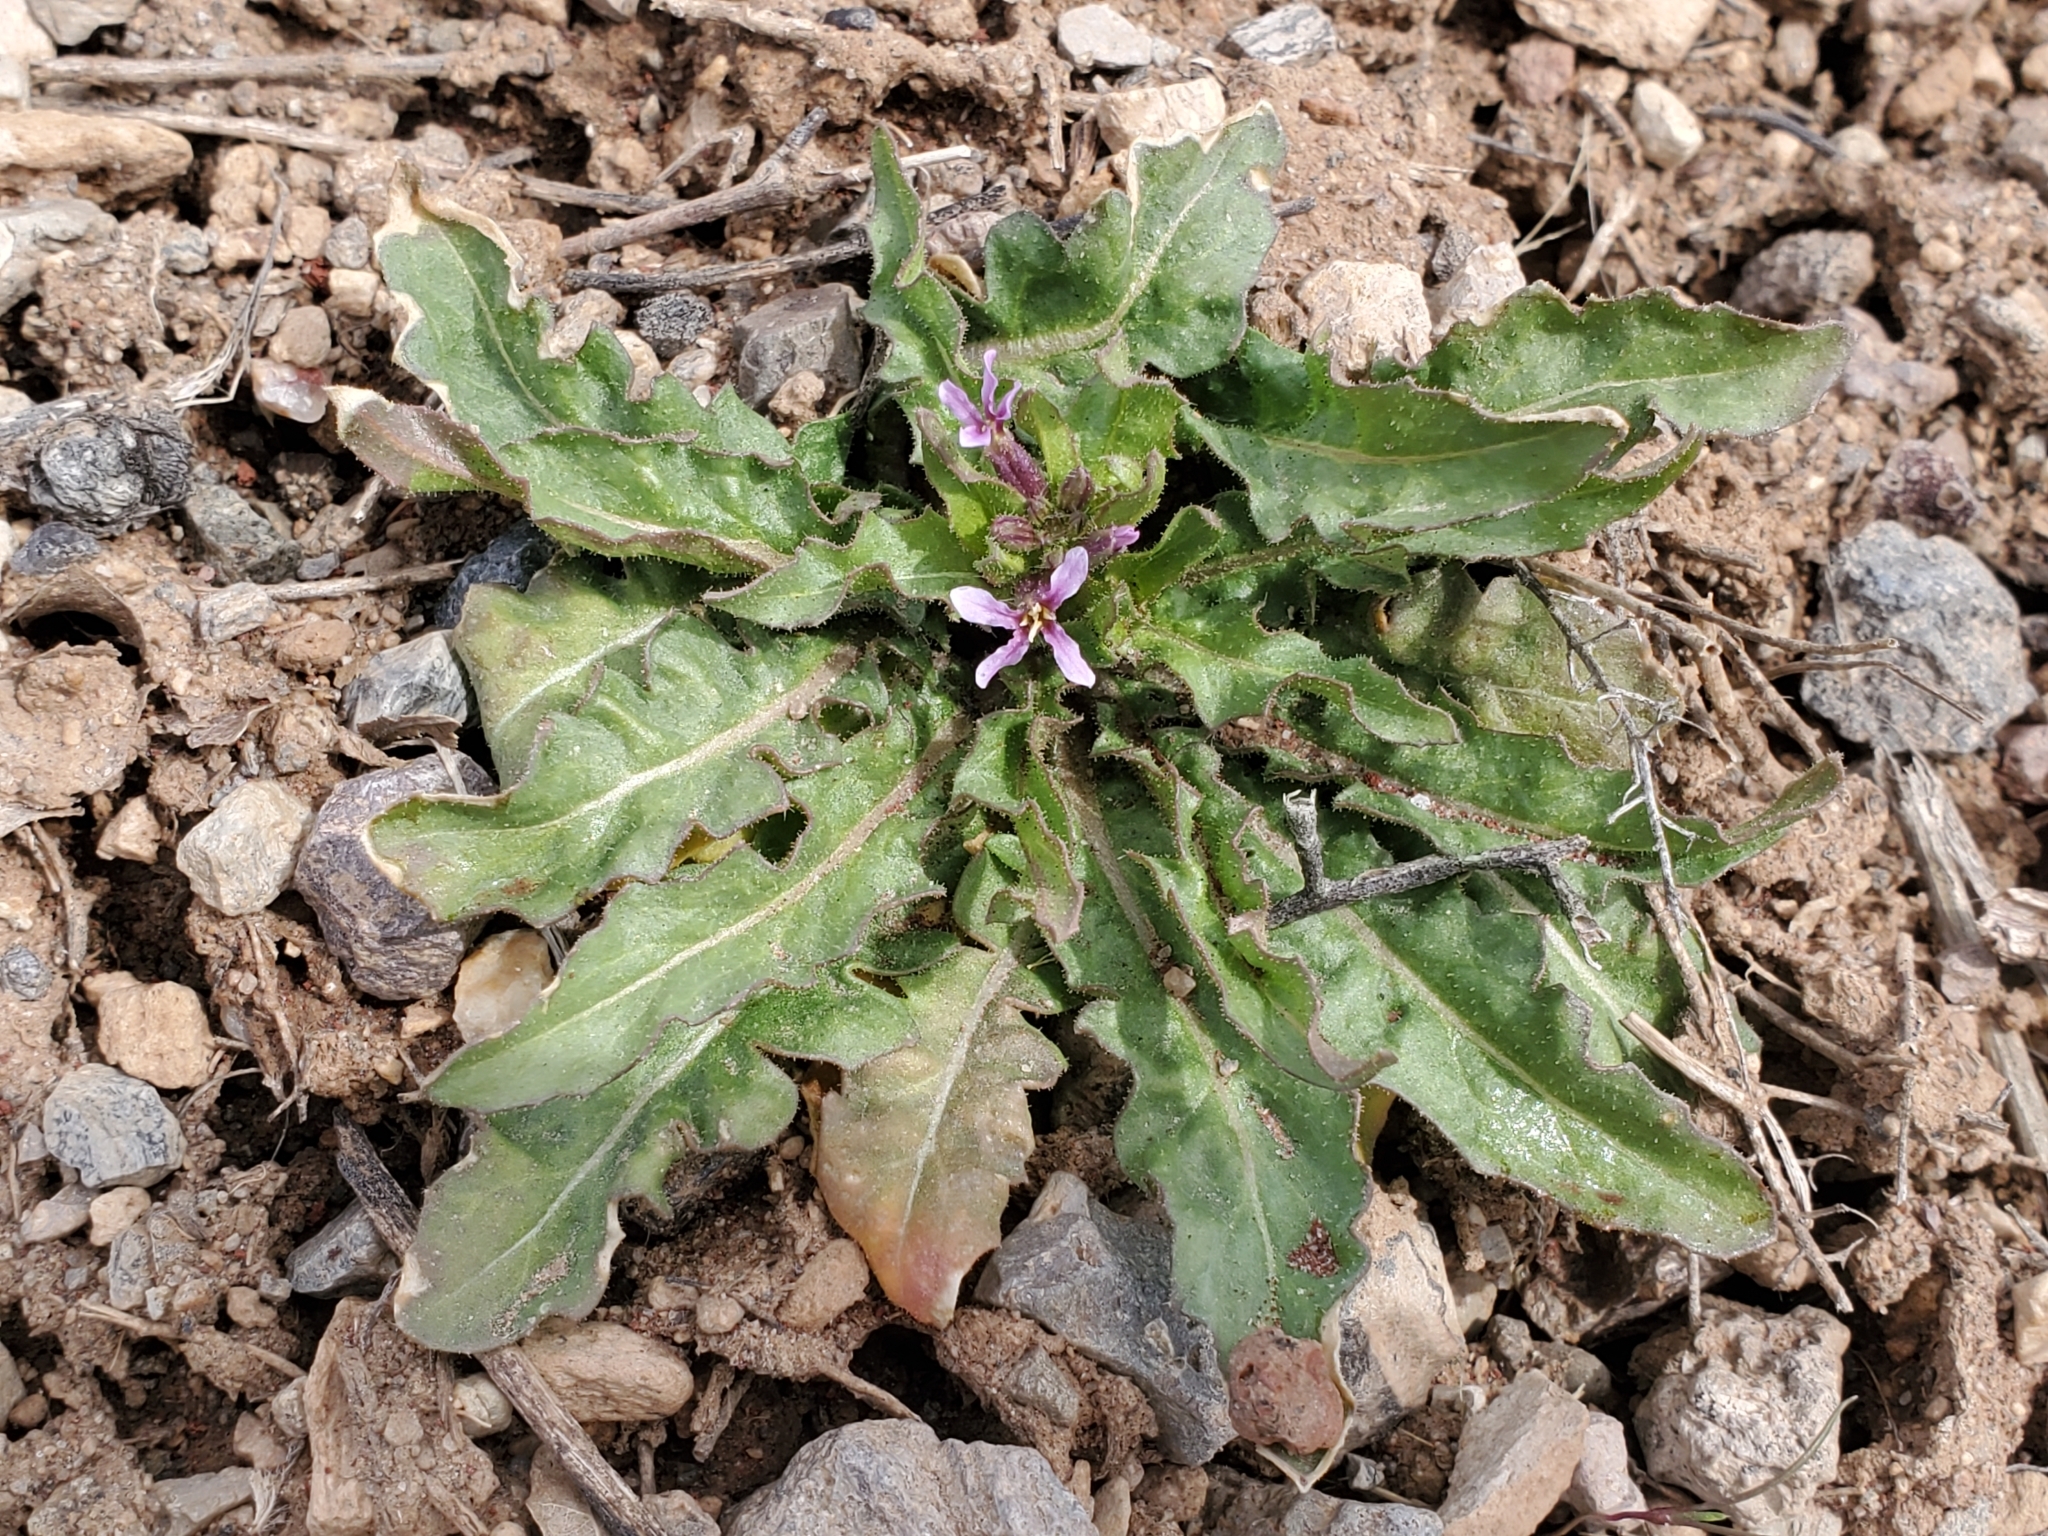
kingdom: Plantae
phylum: Tracheophyta
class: Magnoliopsida
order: Brassicales
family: Brassicaceae
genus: Chorispora
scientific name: Chorispora tenella
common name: Crossflower
